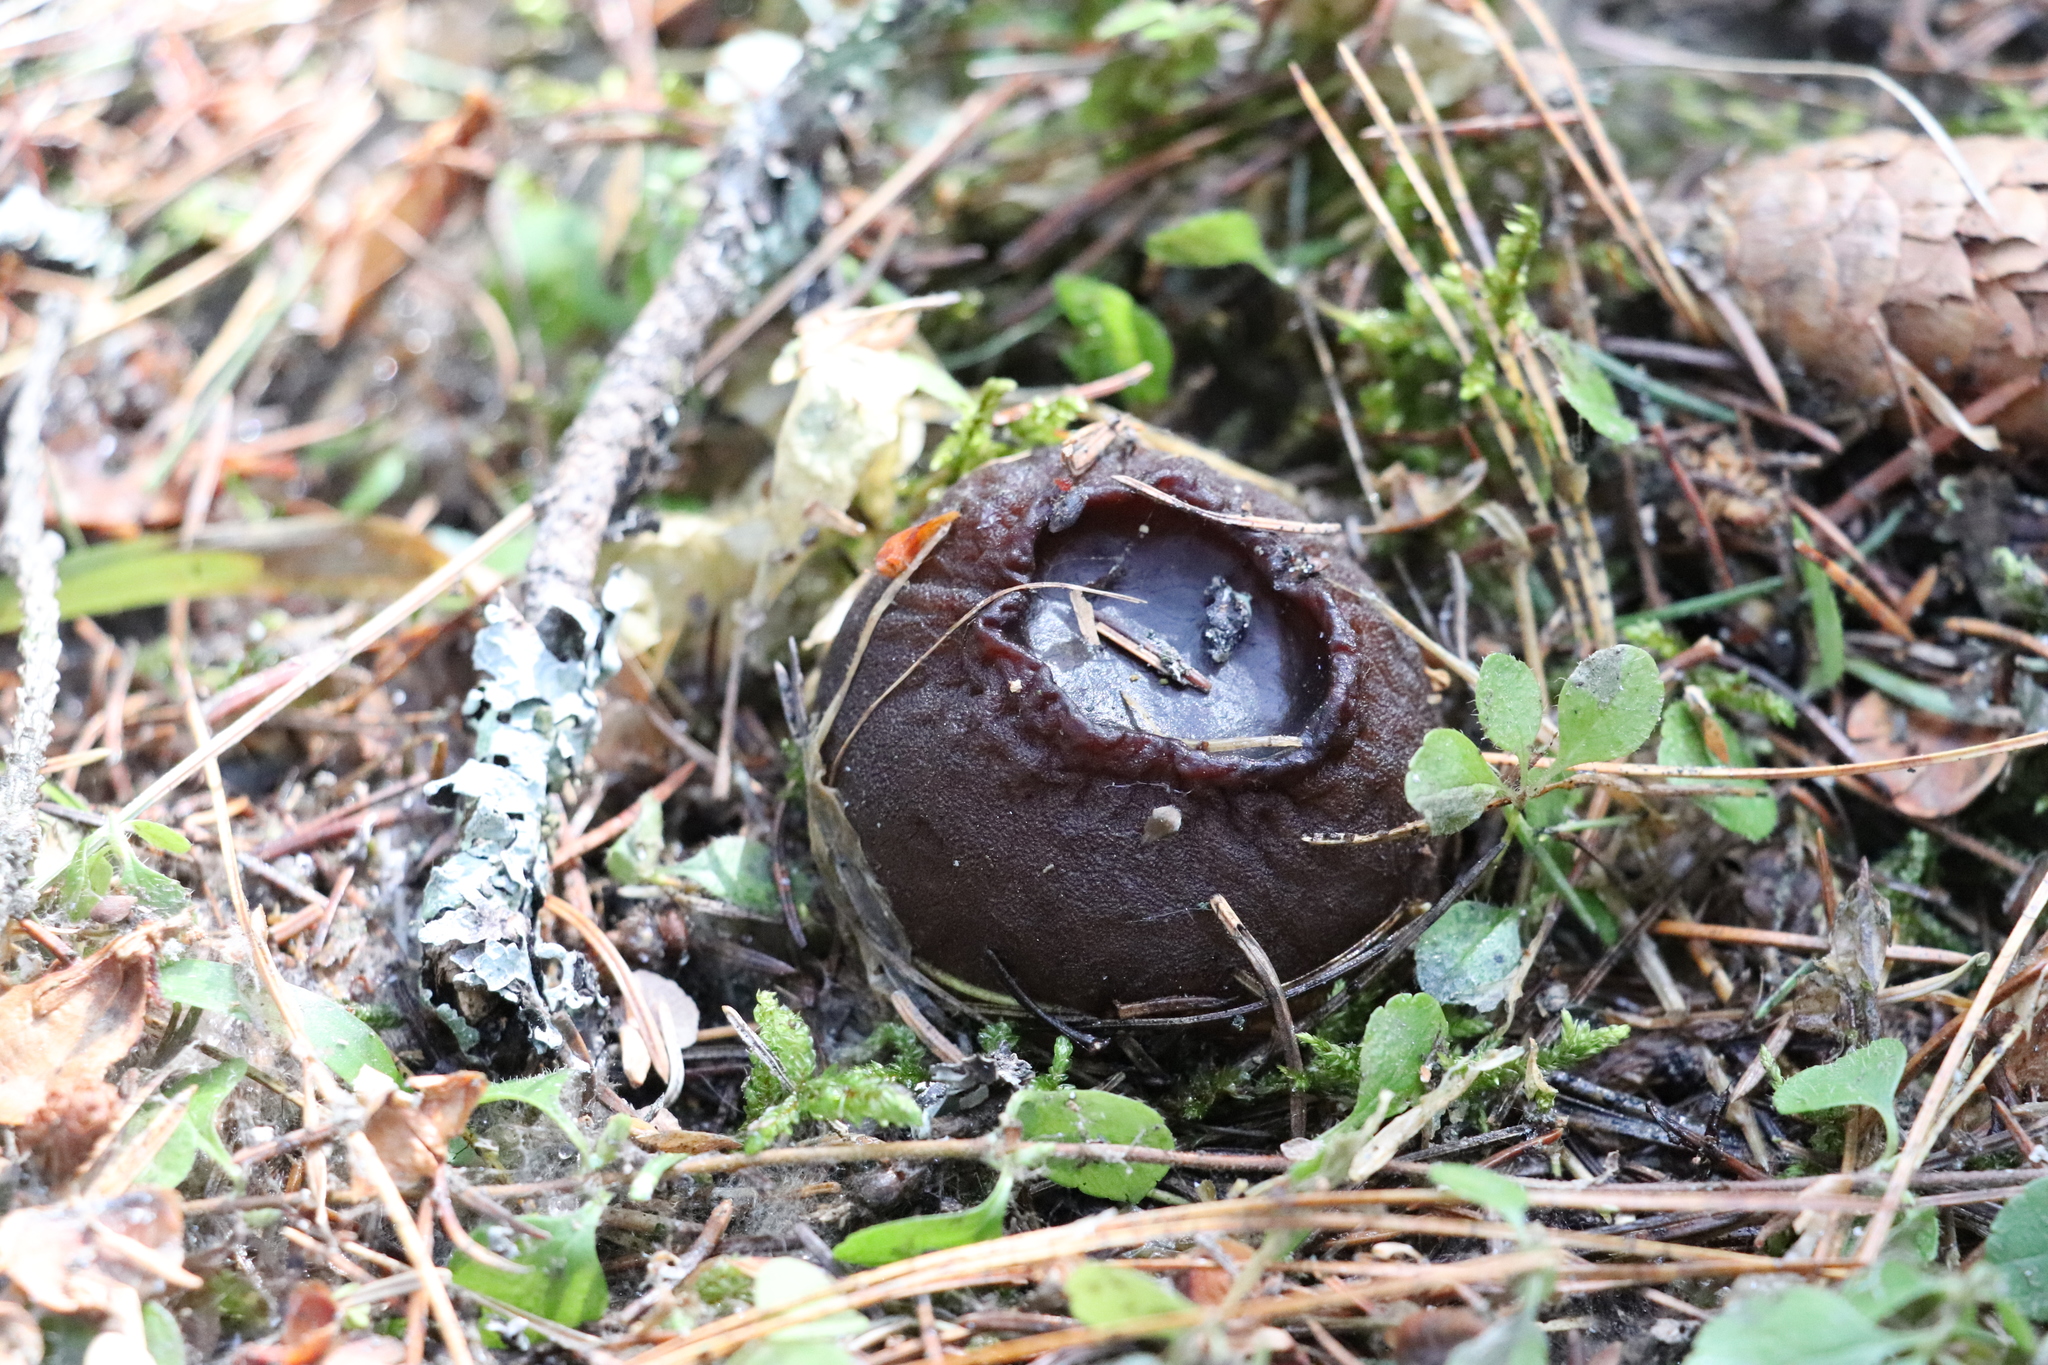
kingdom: Fungi
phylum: Ascomycota
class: Pezizomycetes
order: Pezizales
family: Sarcosomataceae
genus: Sarcosoma
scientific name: Sarcosoma globosum
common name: Charred-pancake cup
